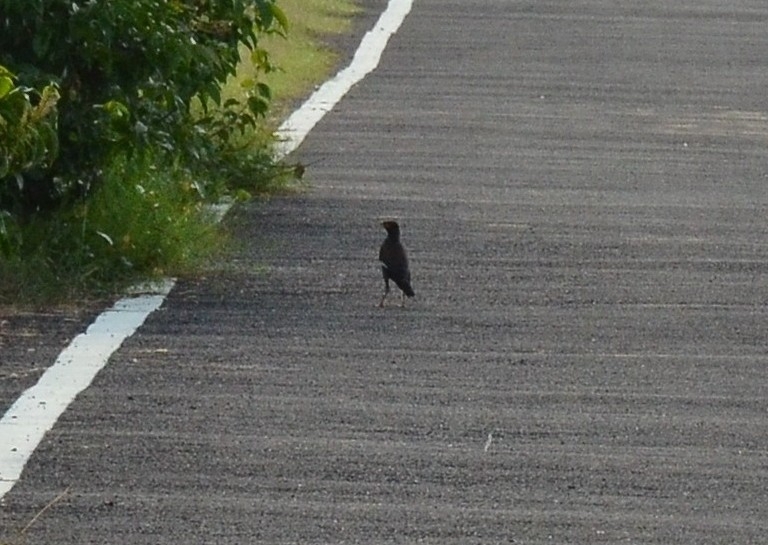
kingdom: Animalia
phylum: Chordata
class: Aves
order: Passeriformes
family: Sturnidae
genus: Acridotheres
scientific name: Acridotheres tristis
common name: Common myna
